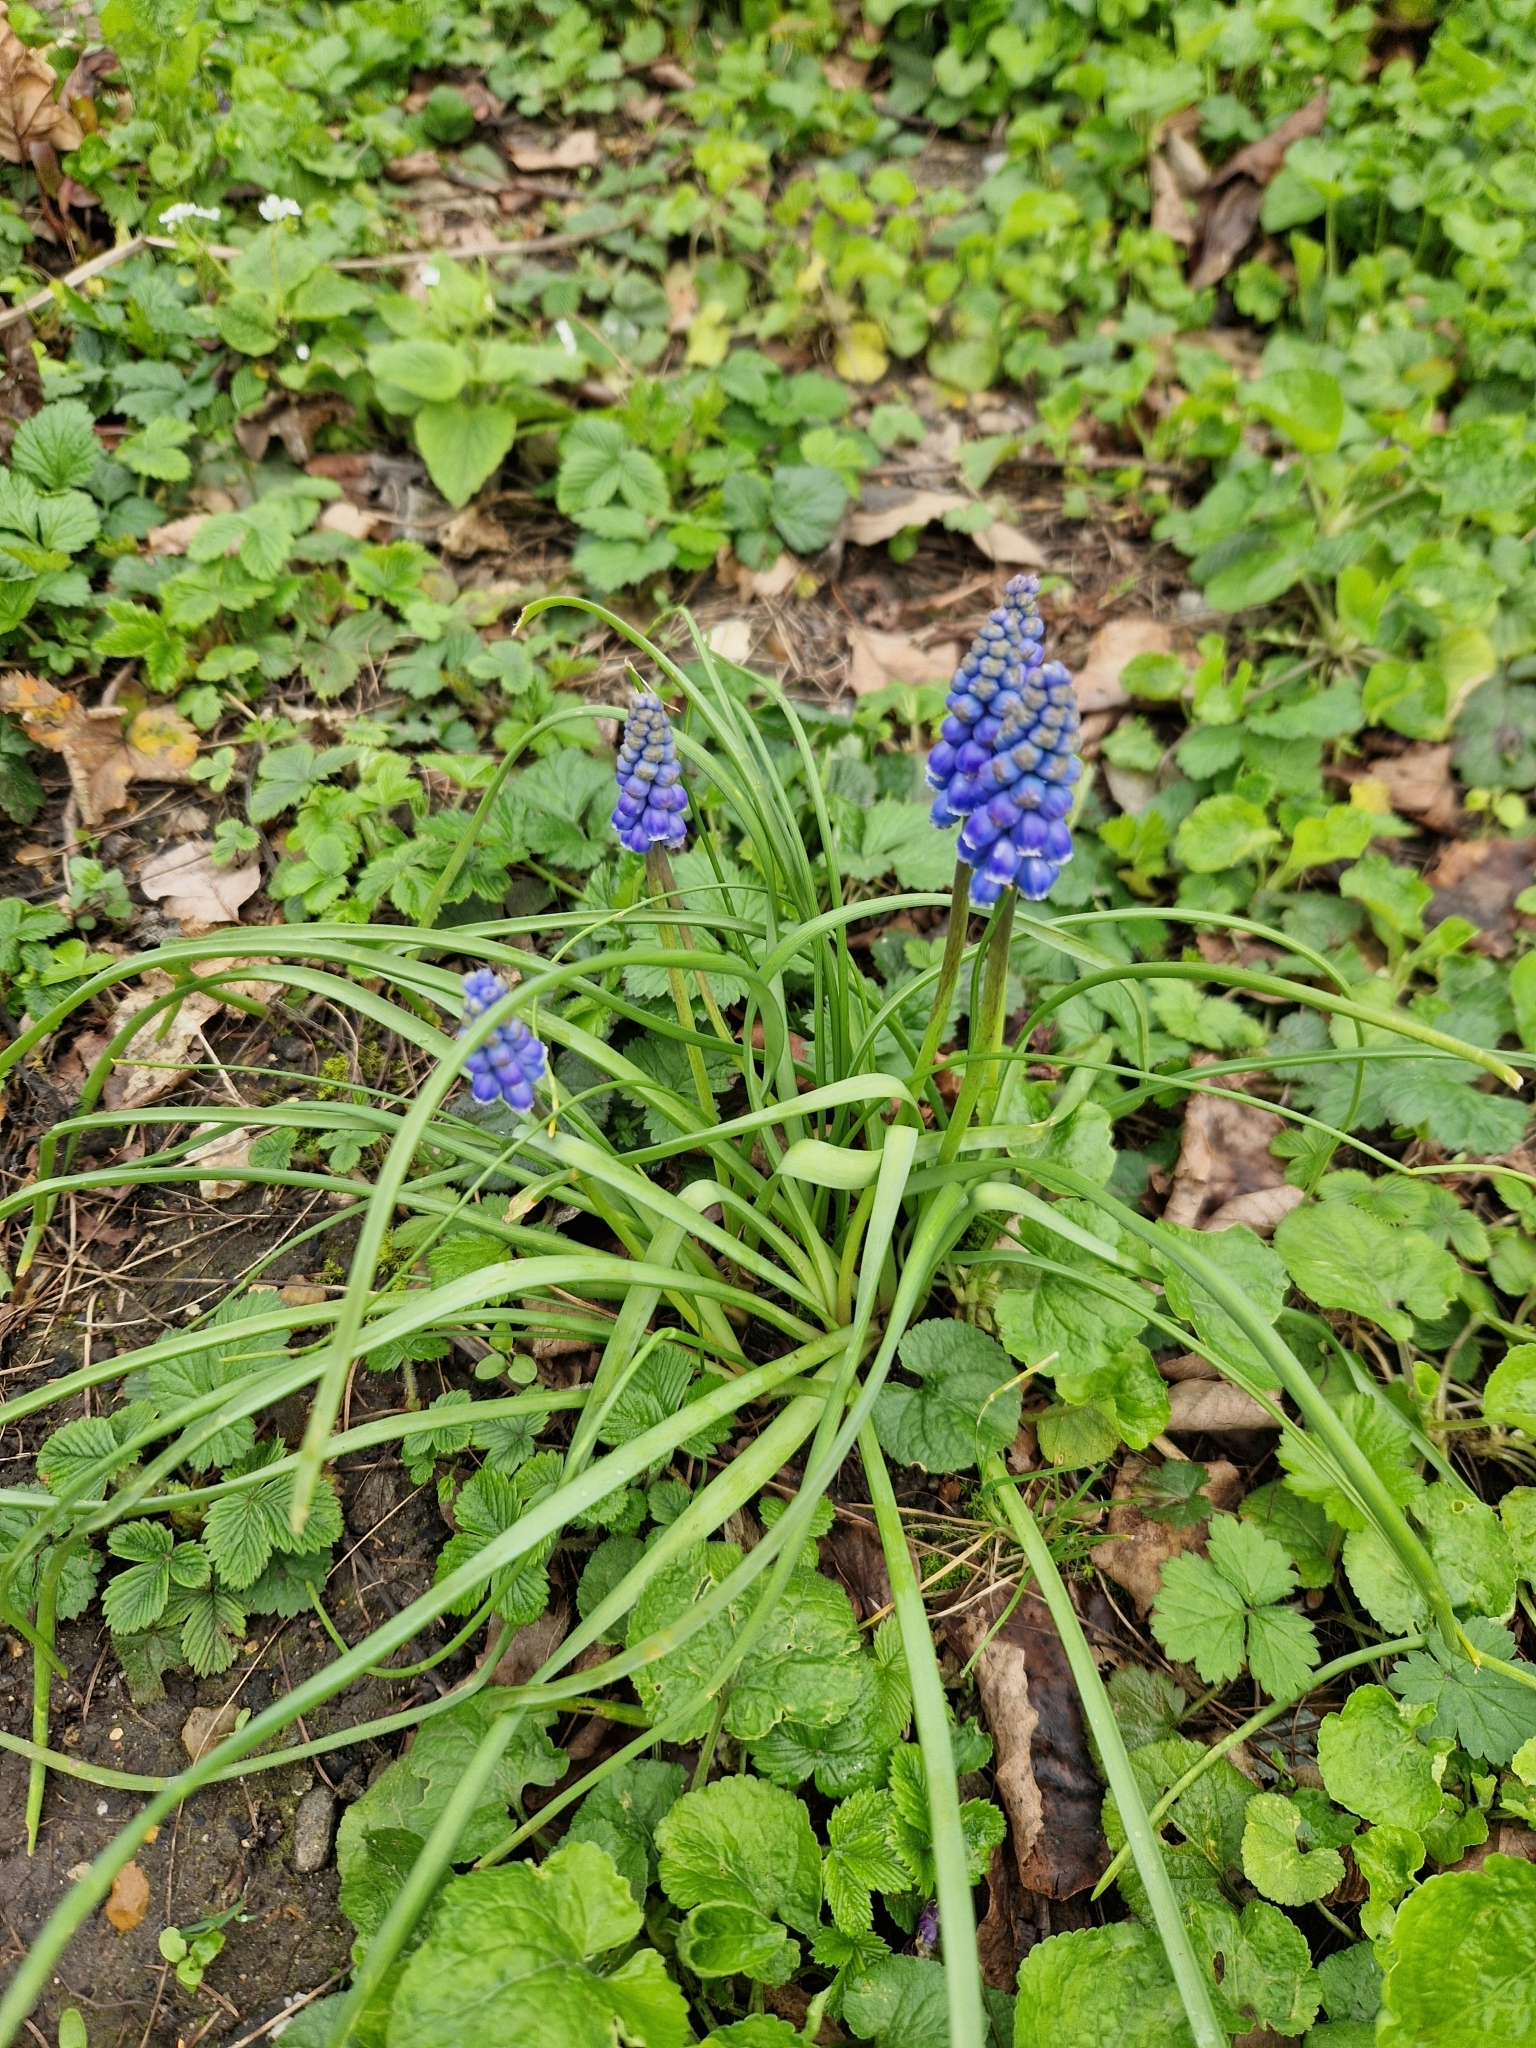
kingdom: Plantae
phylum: Tracheophyta
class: Liliopsida
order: Asparagales
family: Asparagaceae
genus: Muscari
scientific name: Muscari armeniacum
